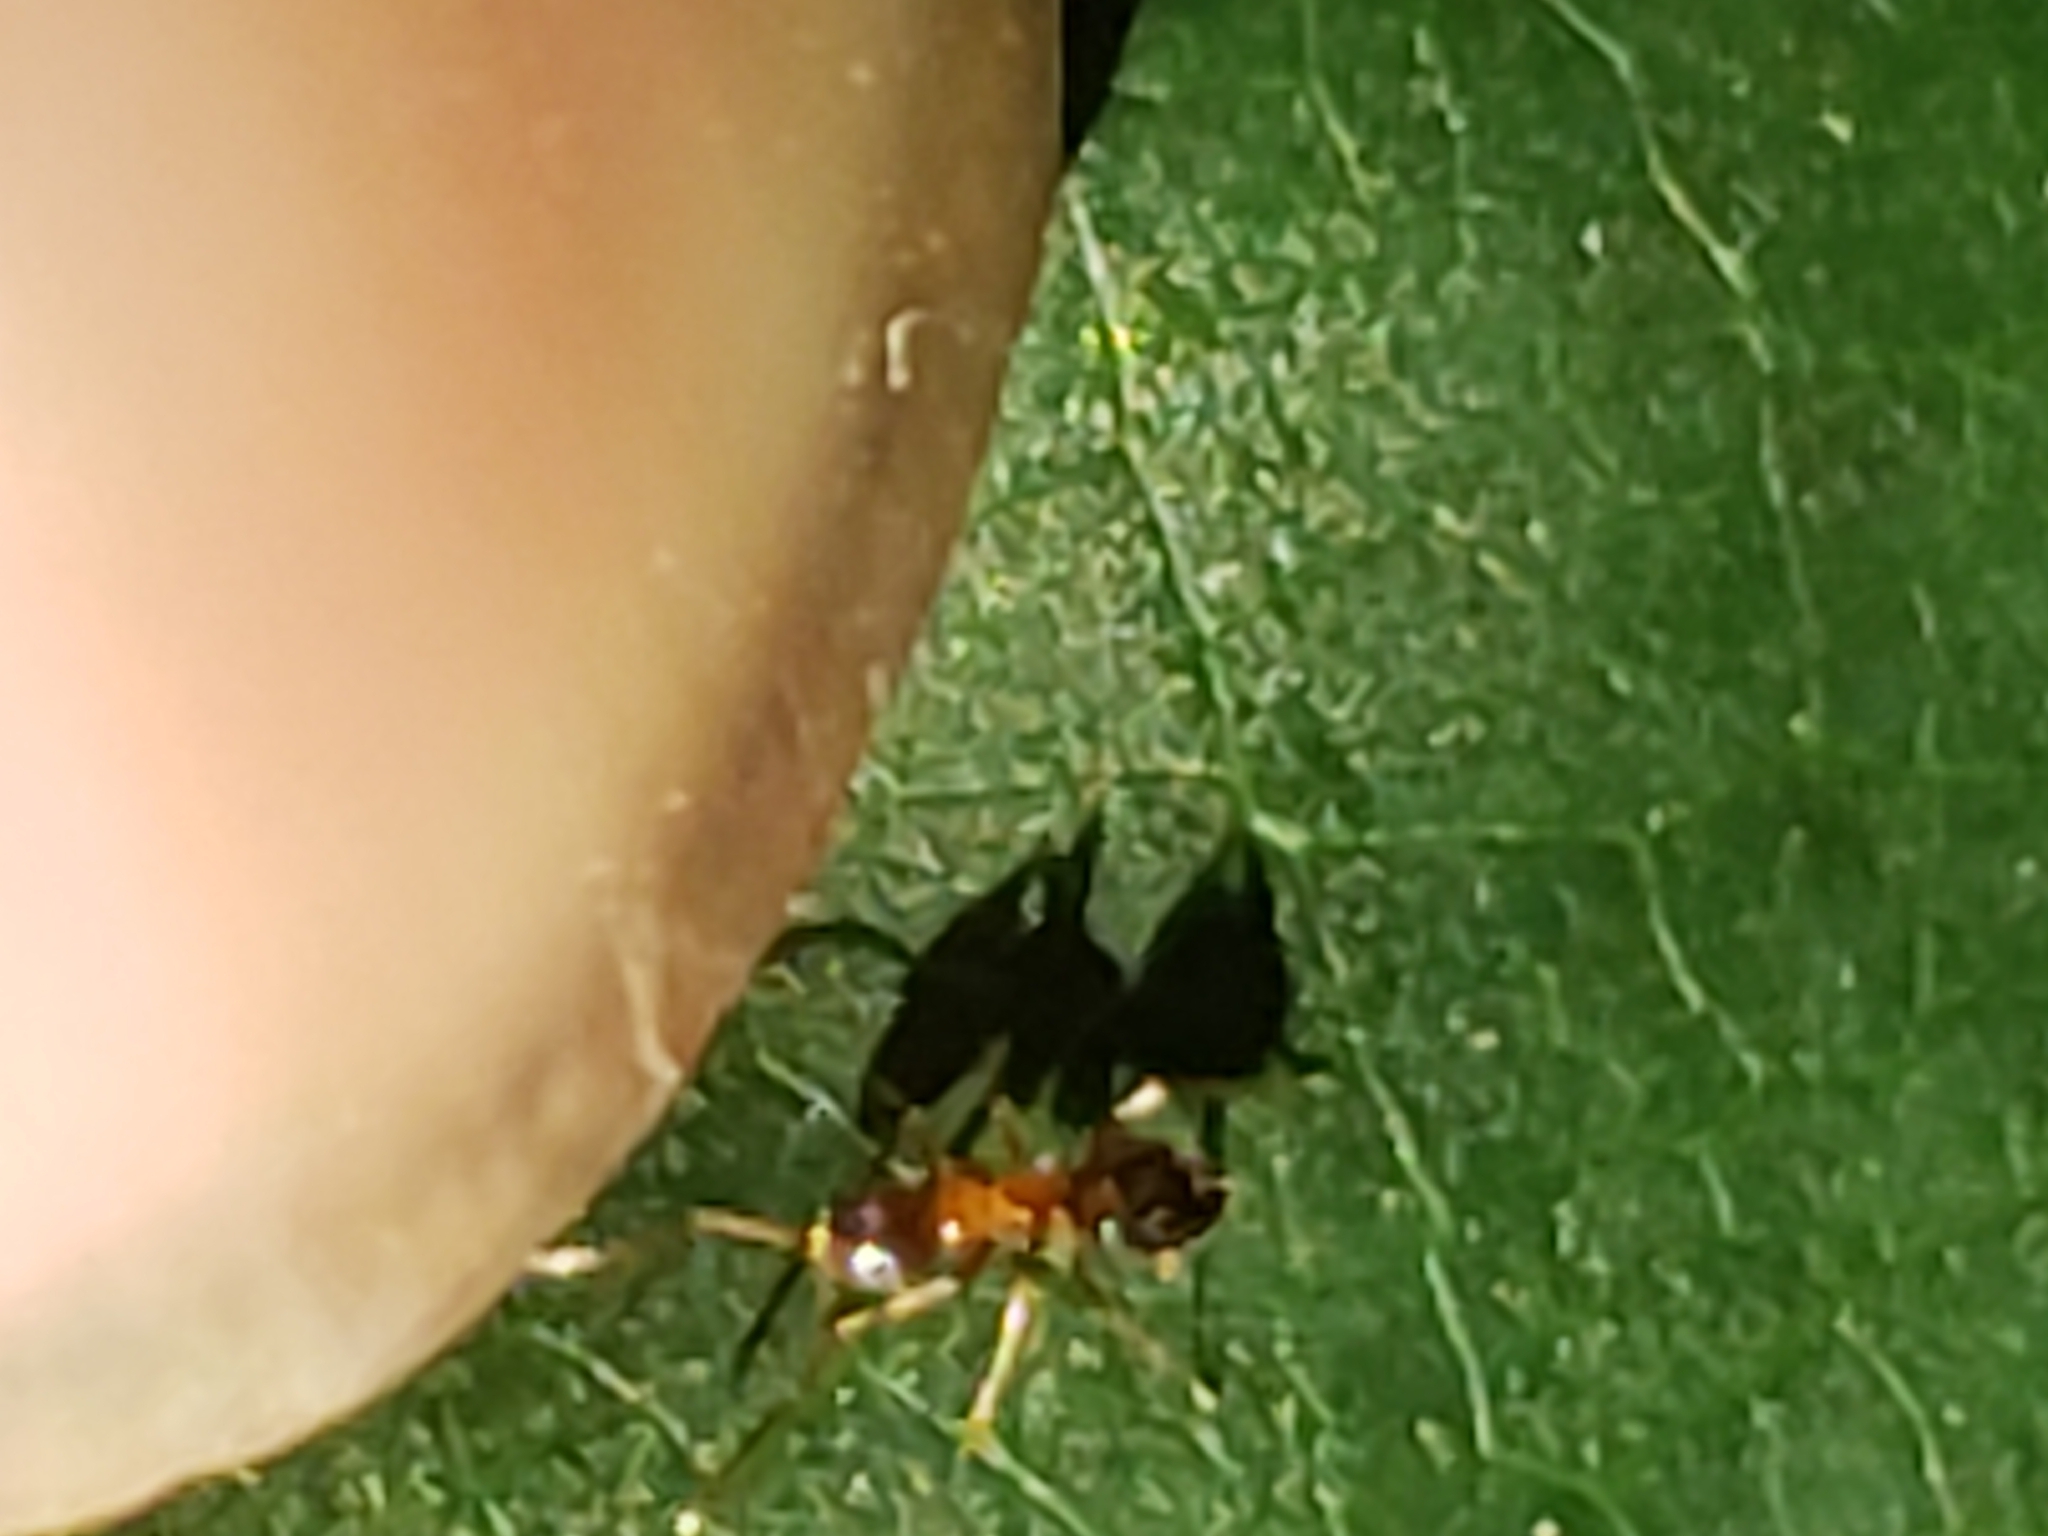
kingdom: Animalia
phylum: Arthropoda
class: Insecta
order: Hymenoptera
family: Formicidae
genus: Paratrechina
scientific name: Paratrechina flavipes
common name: Eastern asian formicine ant
